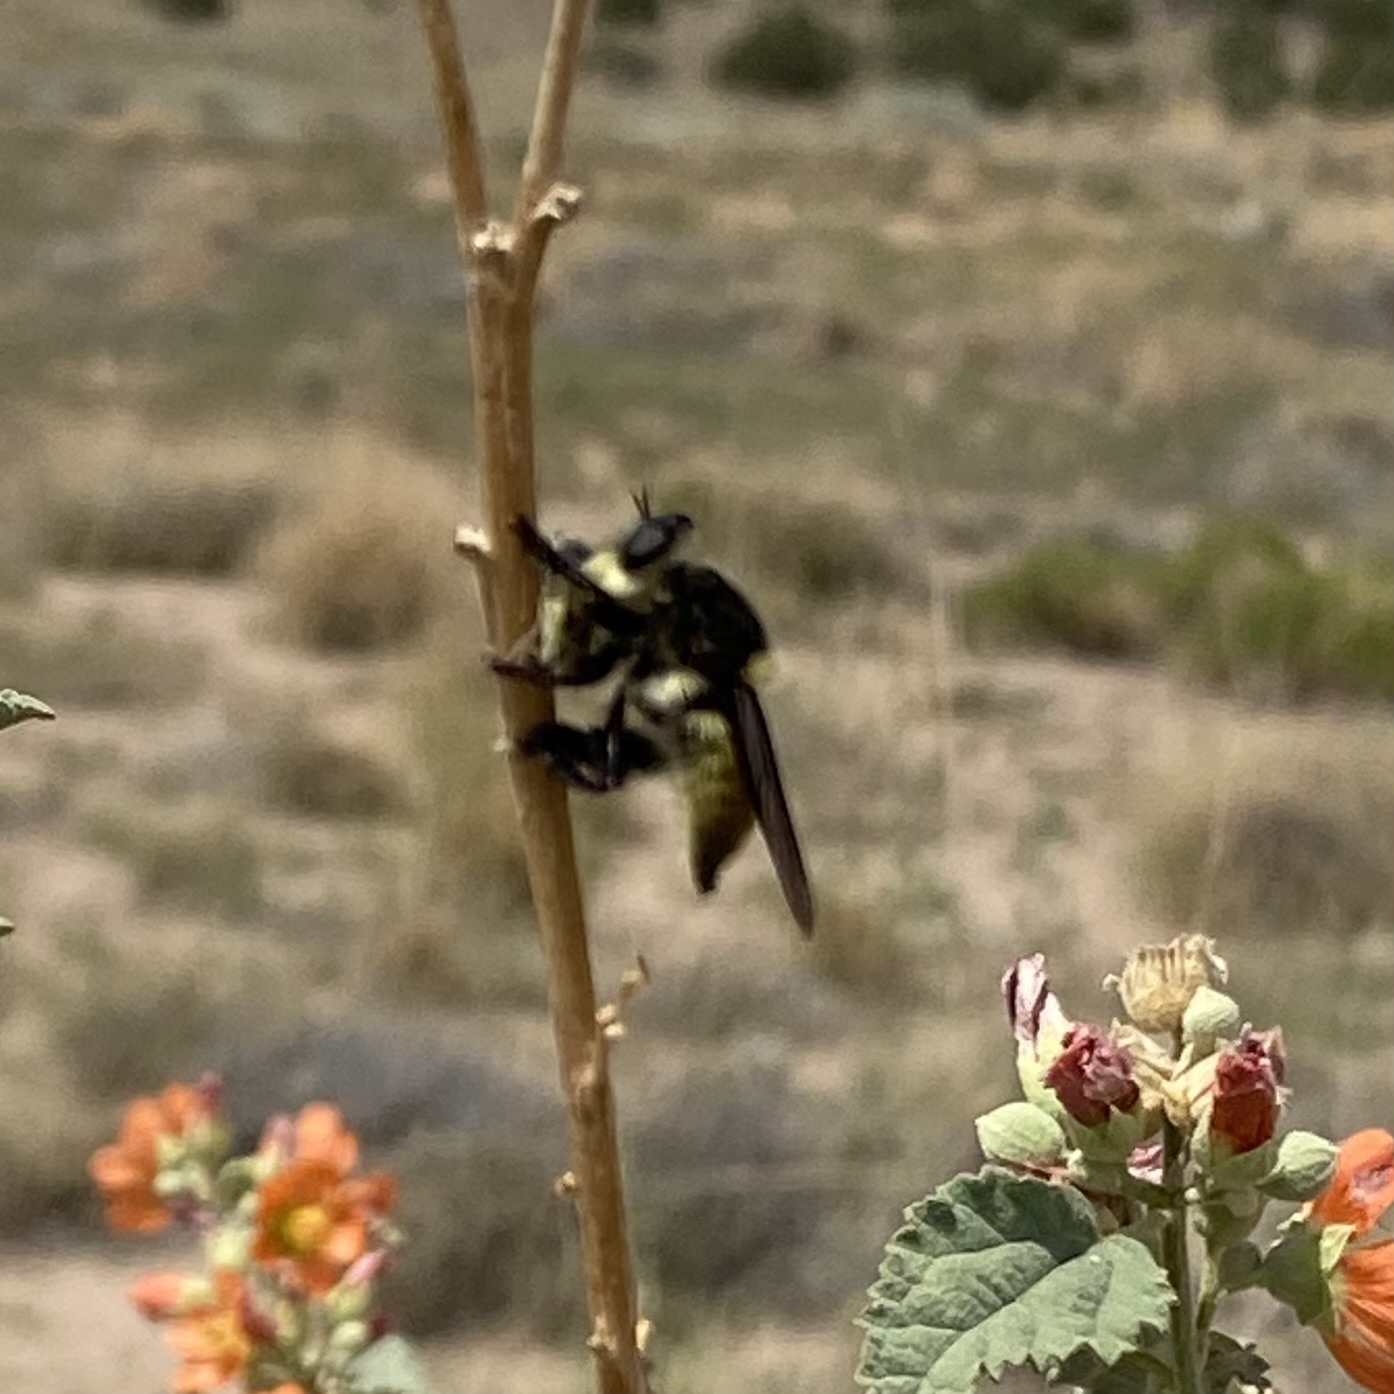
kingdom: Animalia
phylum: Arthropoda
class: Insecta
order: Diptera
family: Asilidae
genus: Mallophora
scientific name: Mallophora fautrix
